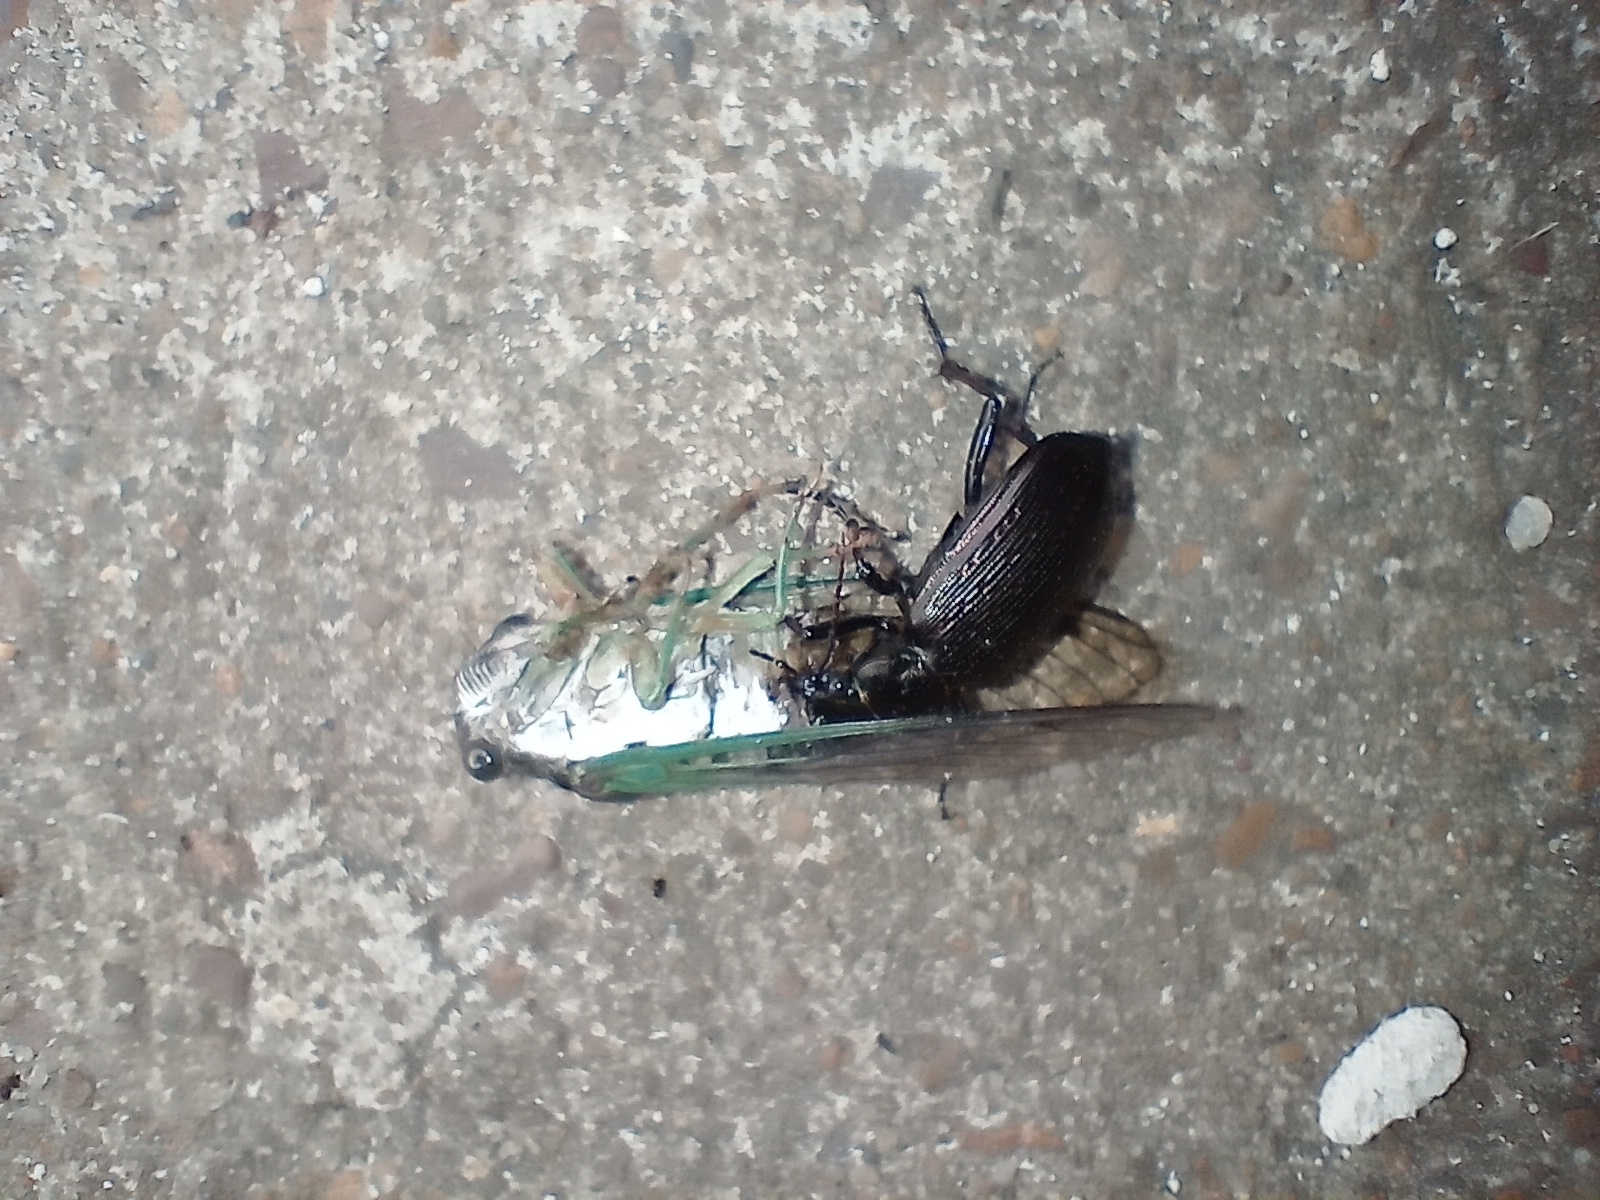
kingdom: Animalia
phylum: Arthropoda
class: Insecta
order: Coleoptera
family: Carabidae
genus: Calosoma
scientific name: Calosoma sayi
